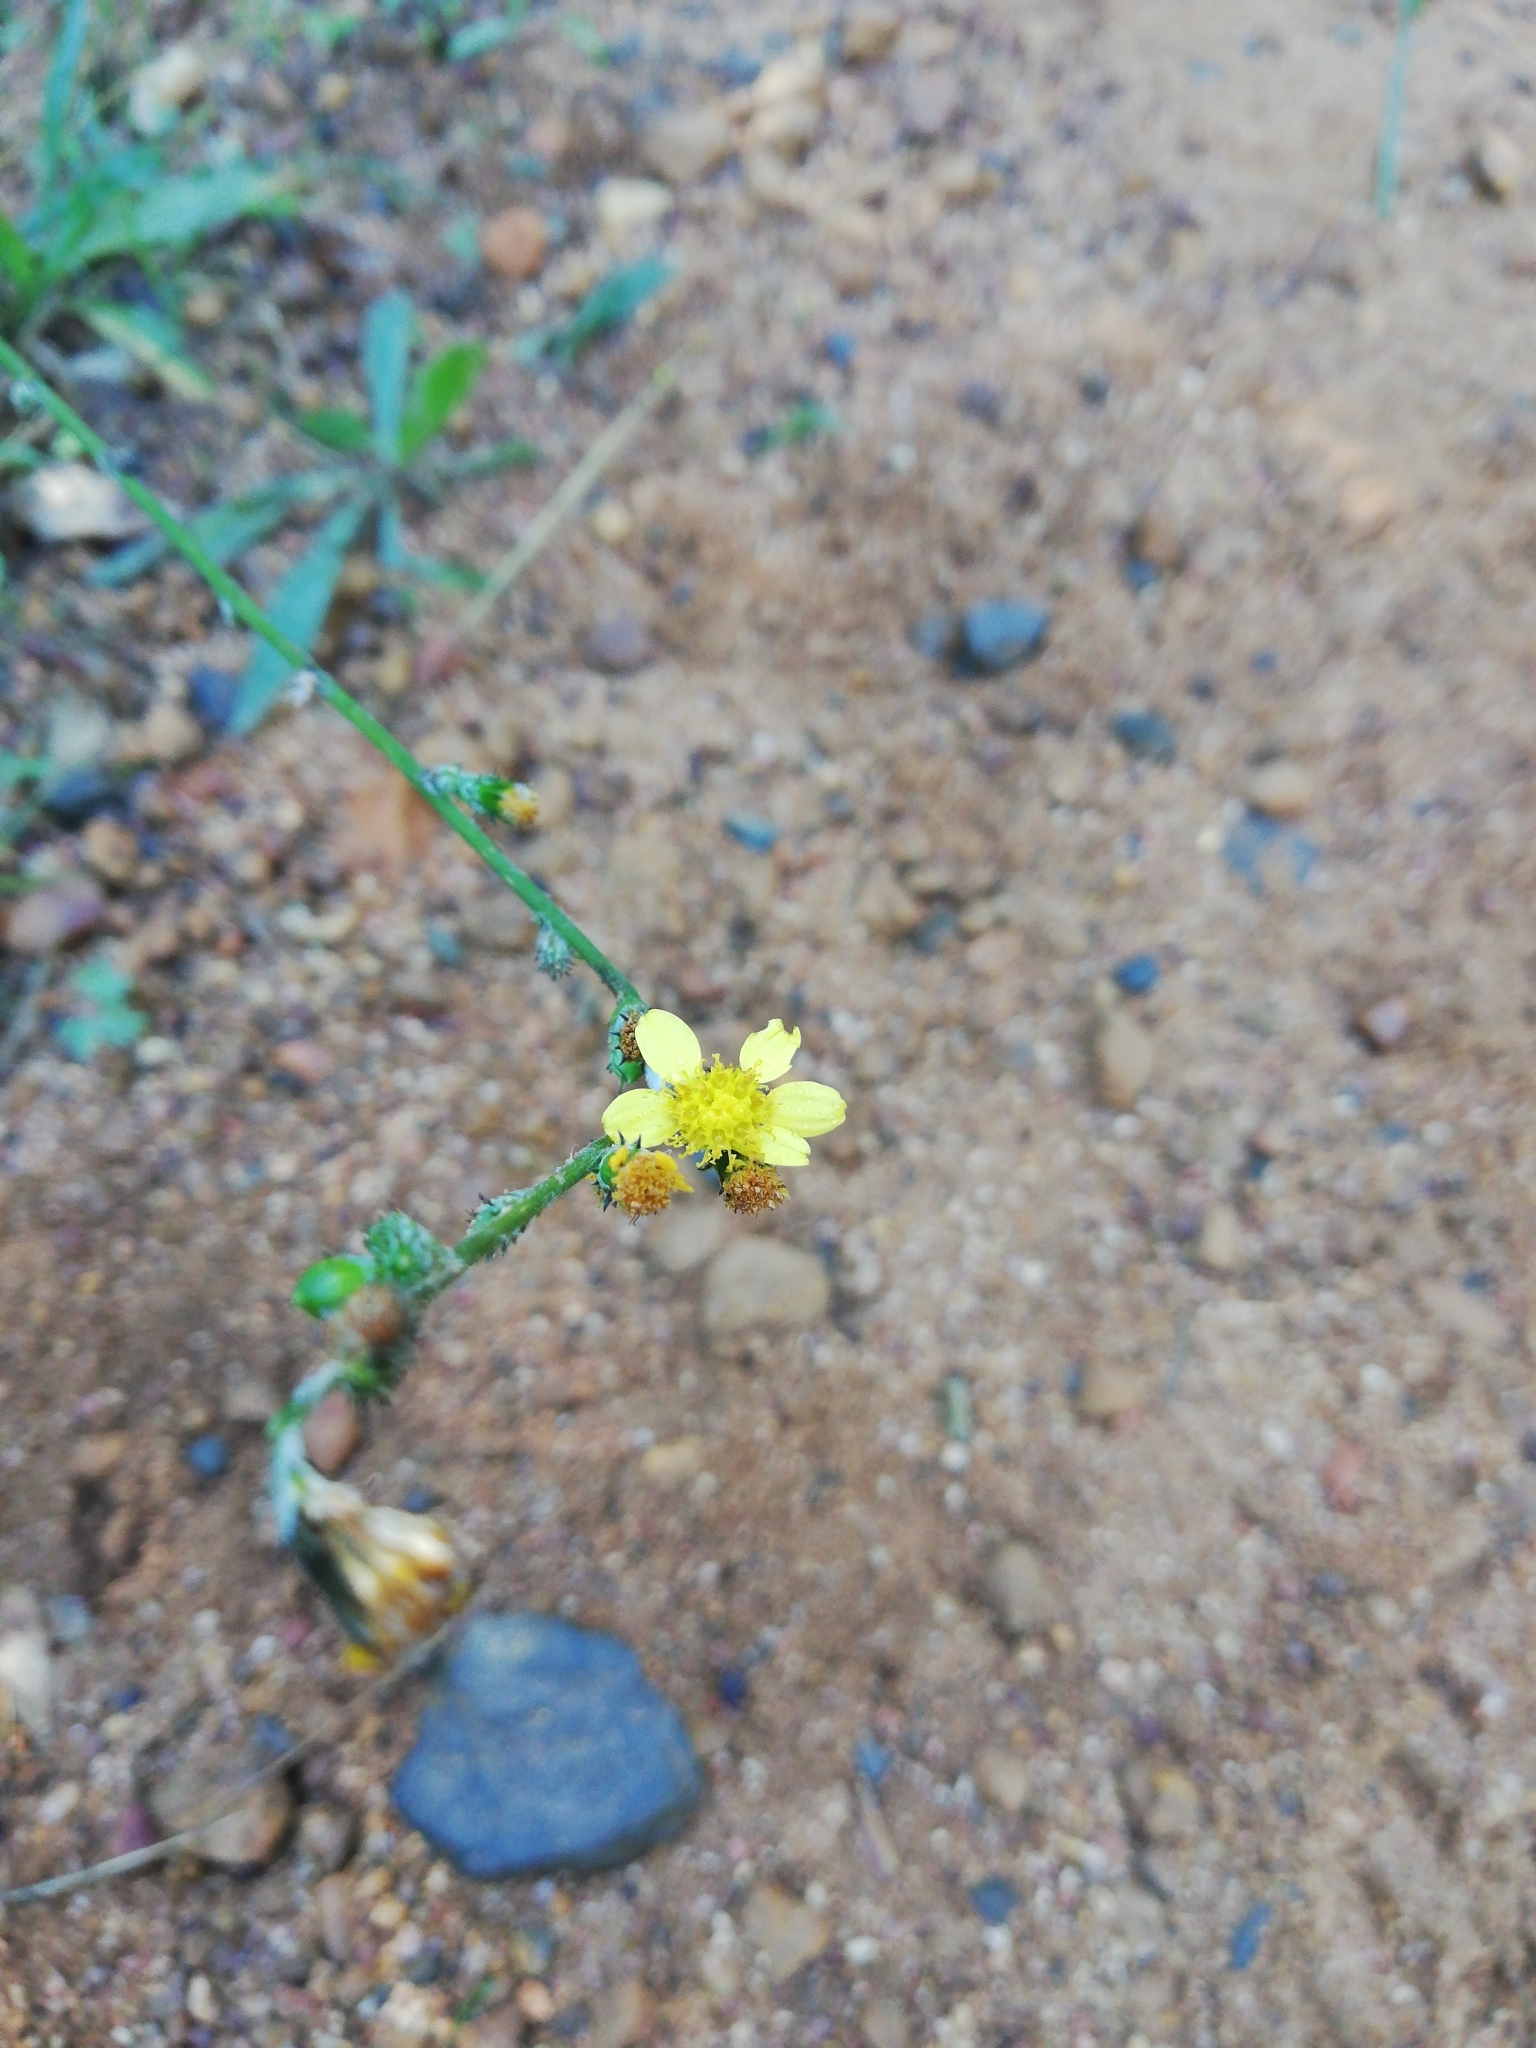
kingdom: Plantae
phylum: Tracheophyta
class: Magnoliopsida
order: Asterales
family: Asteraceae
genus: Senecio
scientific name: Senecio pubigerus
